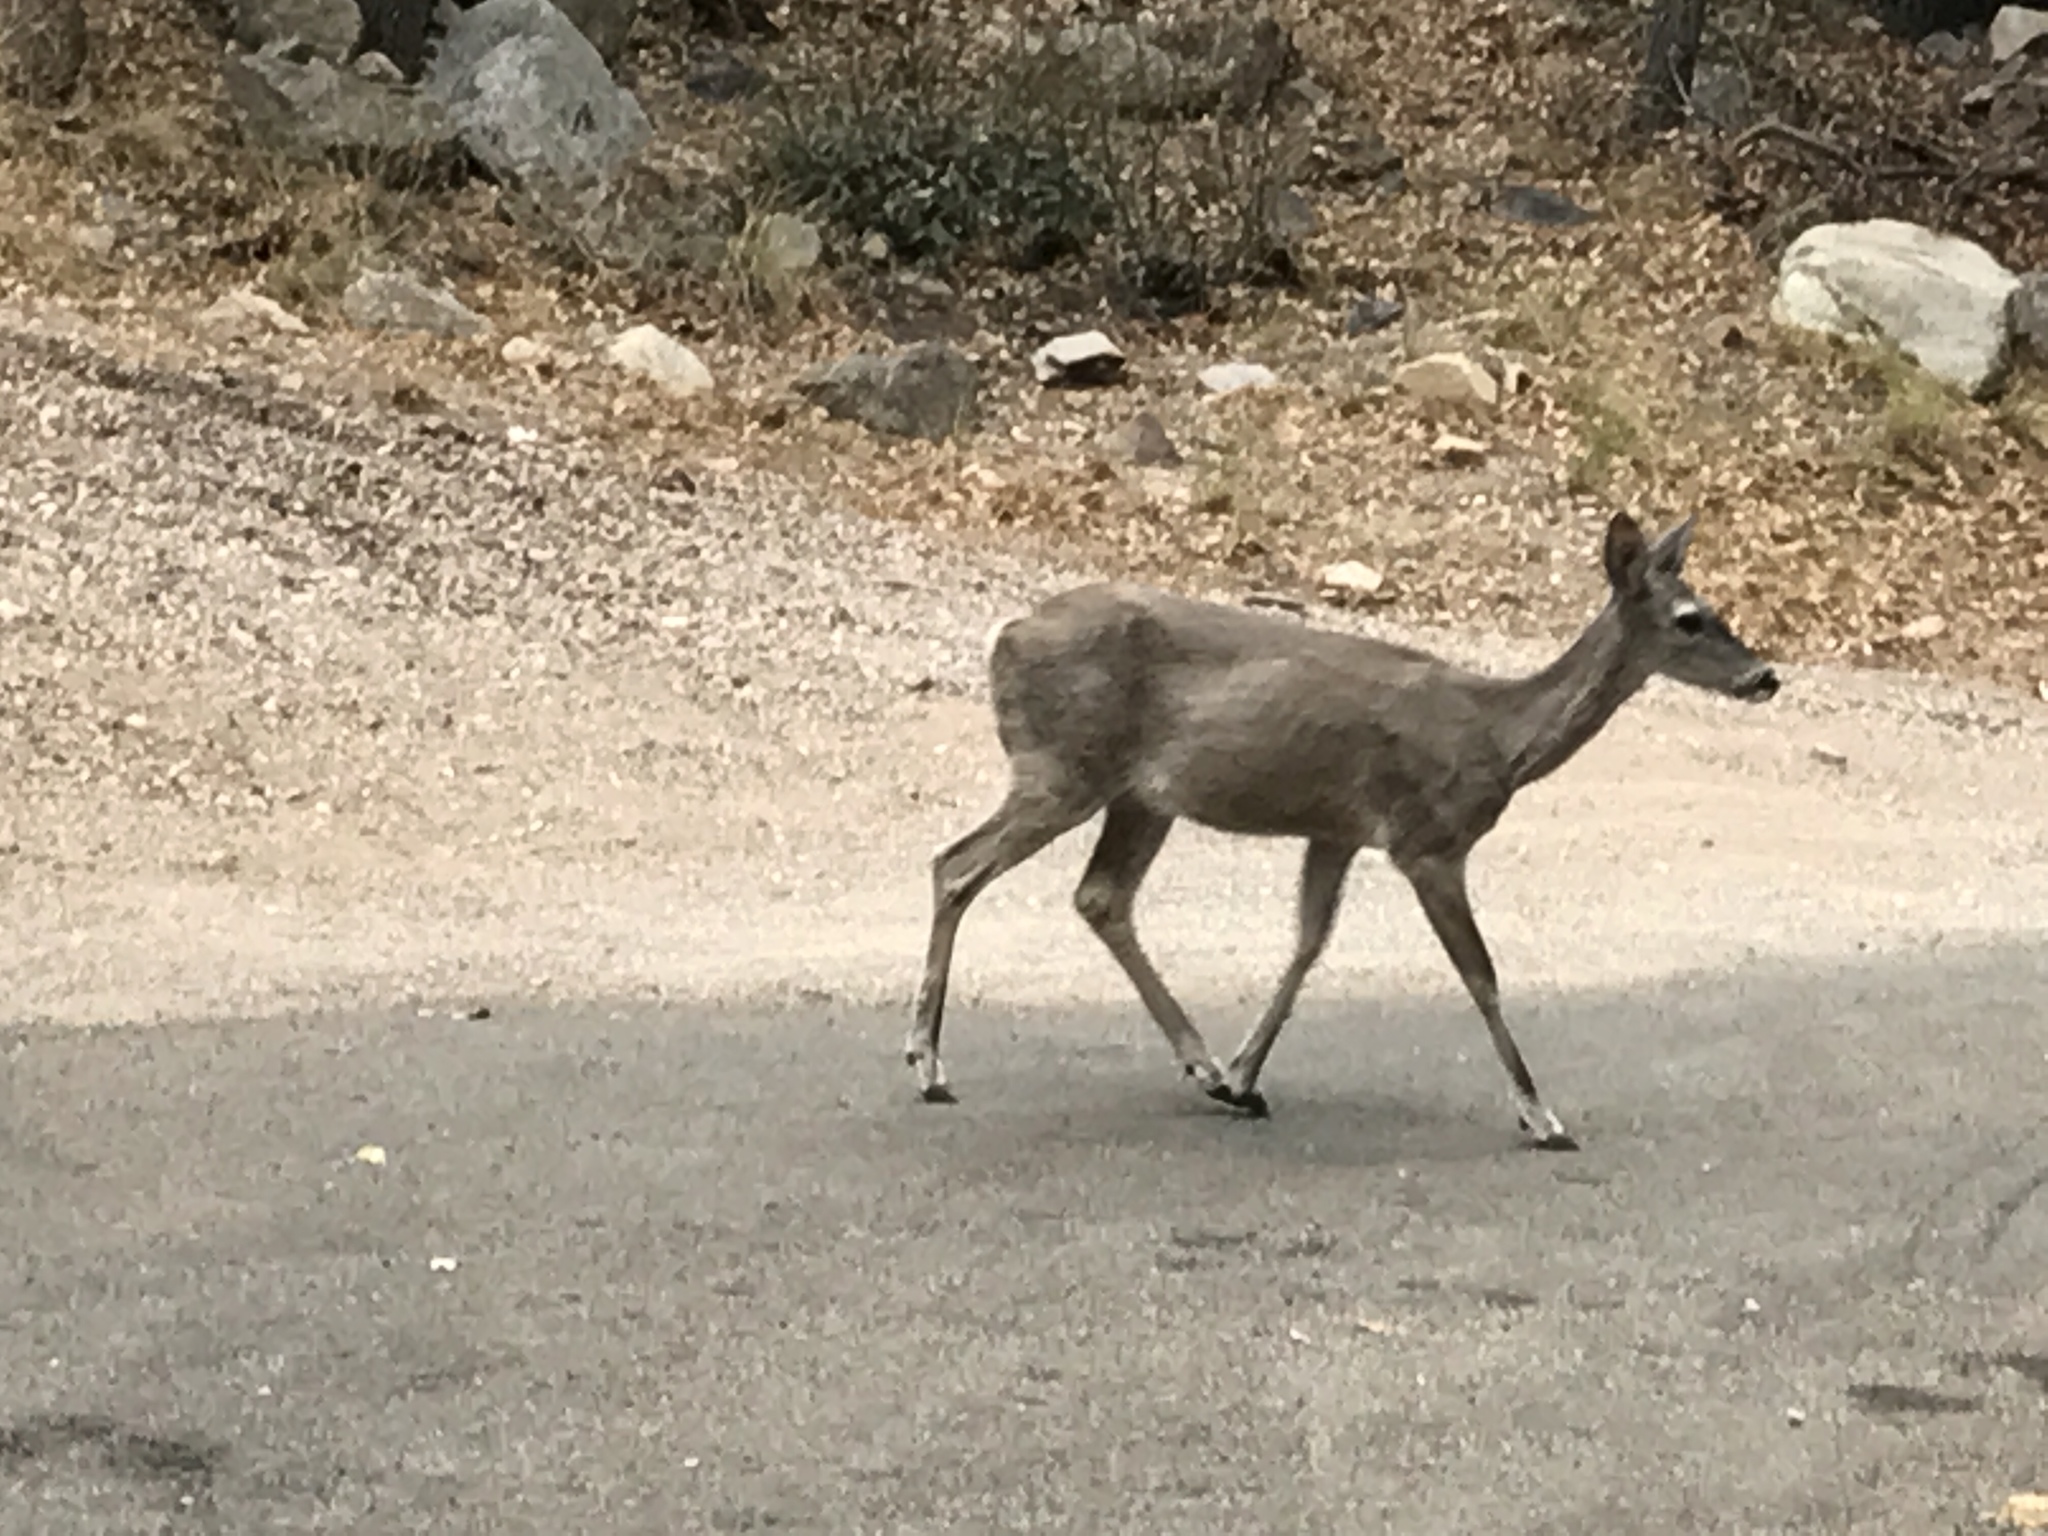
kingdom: Animalia
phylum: Chordata
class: Mammalia
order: Artiodactyla
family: Cervidae
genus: Odocoileus
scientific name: Odocoileus virginianus
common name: White-tailed deer
